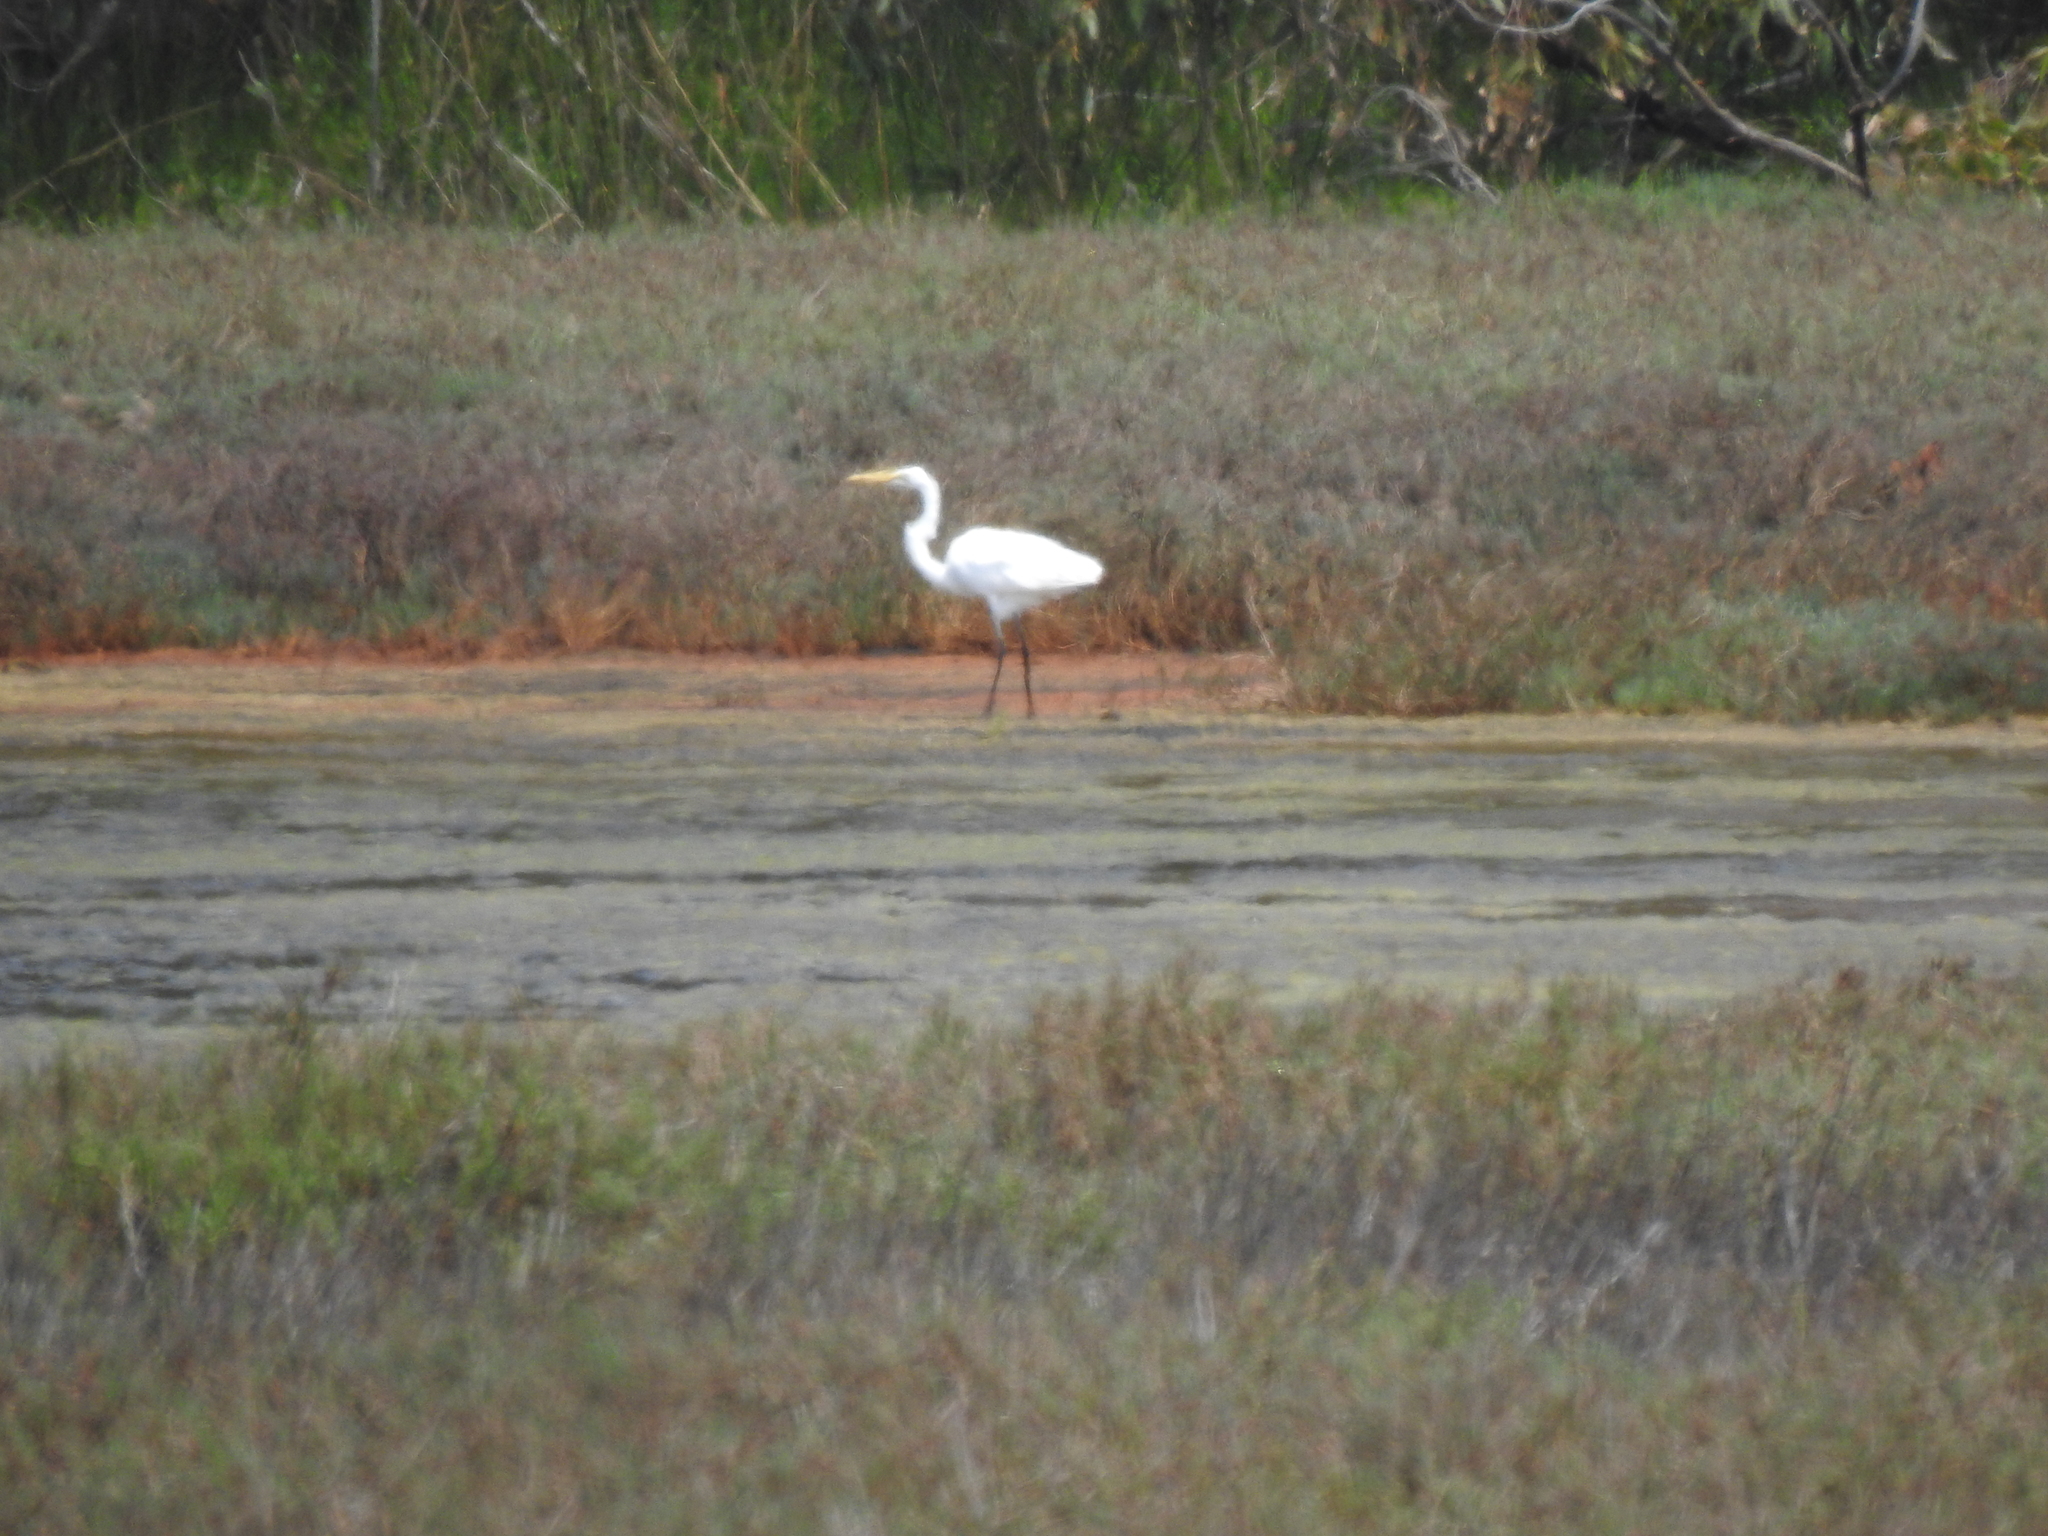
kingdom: Animalia
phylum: Chordata
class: Aves
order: Pelecaniformes
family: Ardeidae
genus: Ardea
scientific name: Ardea alba
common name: Great egret
